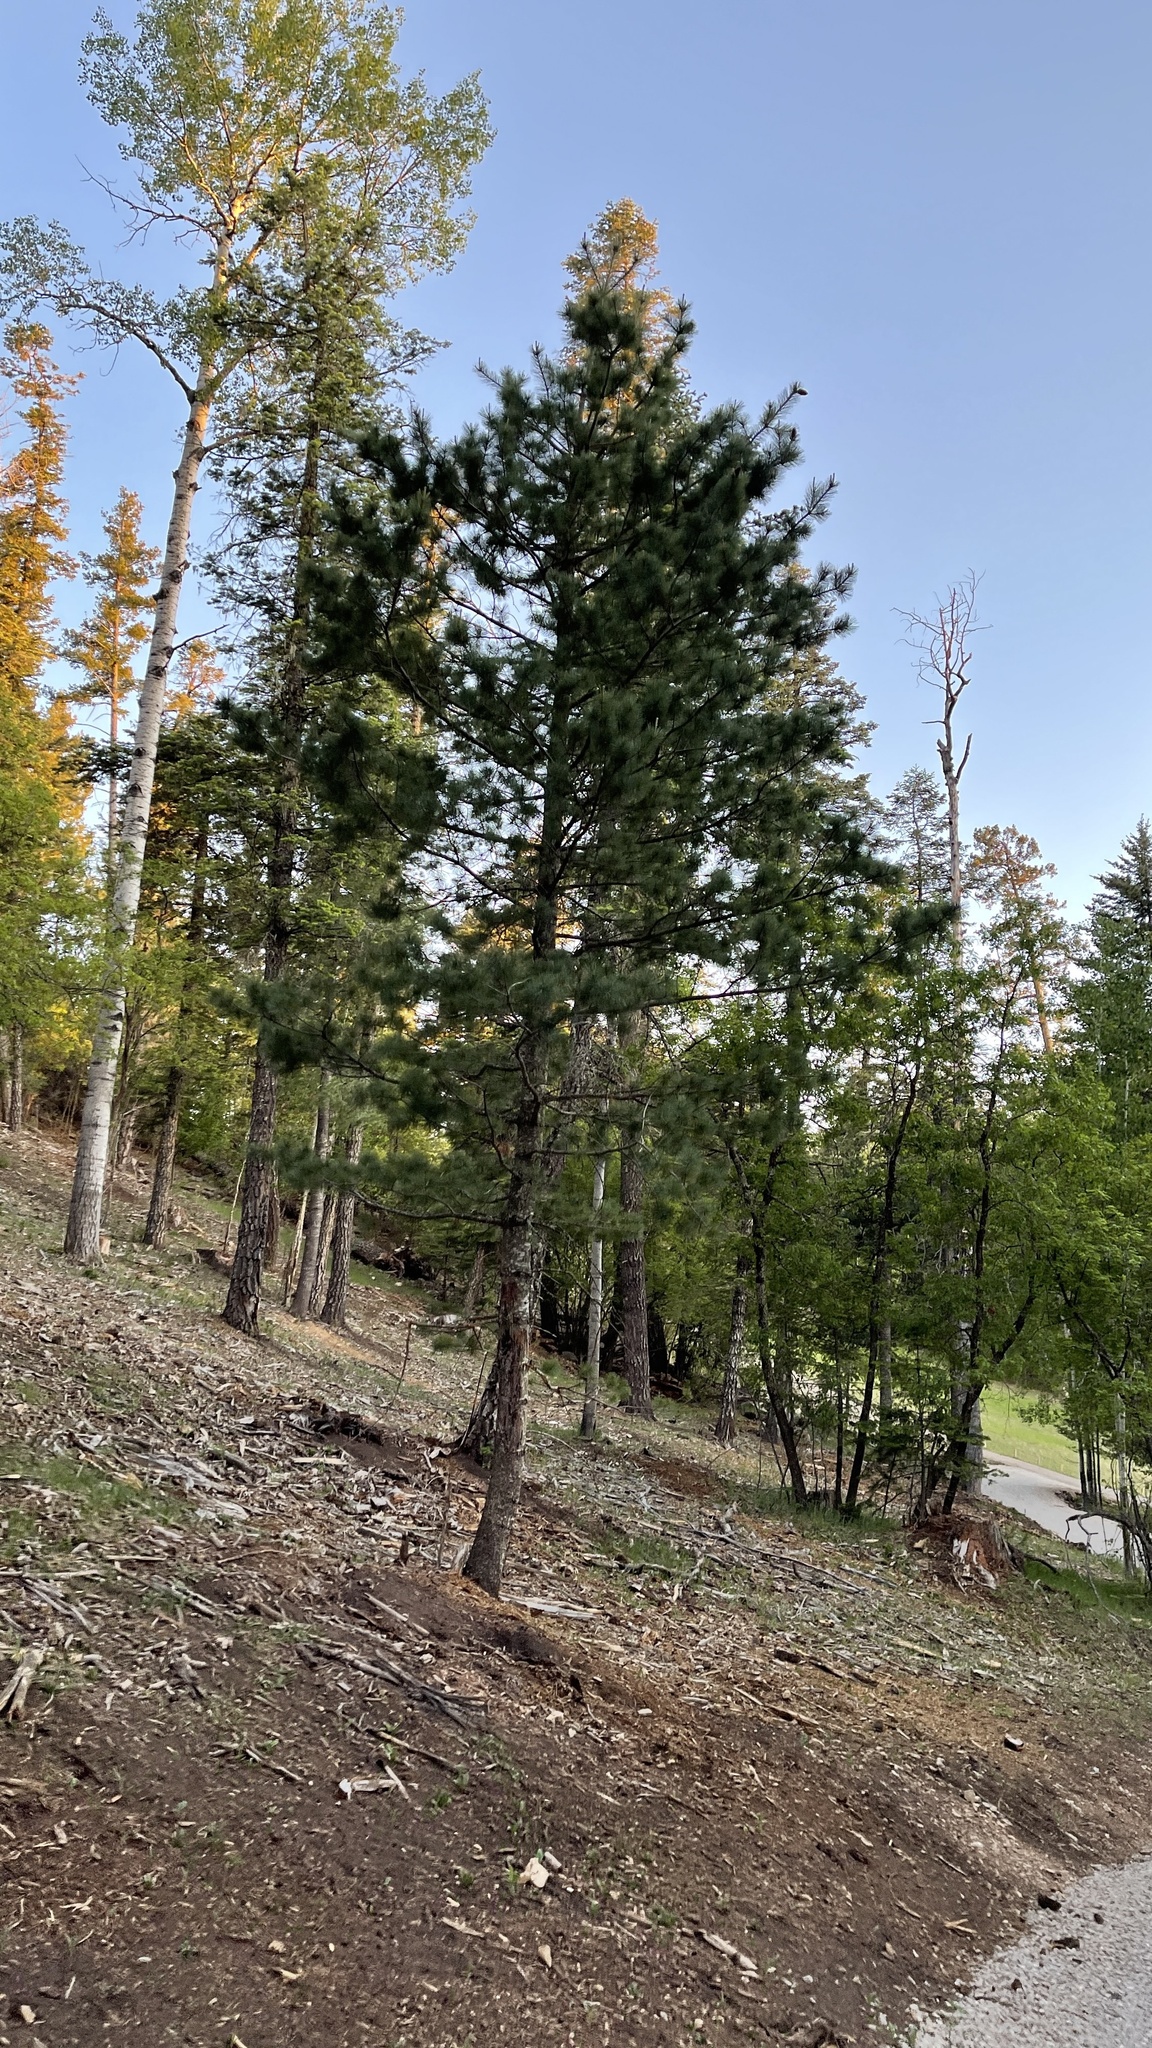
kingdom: Plantae
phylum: Tracheophyta
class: Pinopsida
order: Pinales
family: Pinaceae
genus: Pinus
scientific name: Pinus strobiformis
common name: Southwestern white pine
